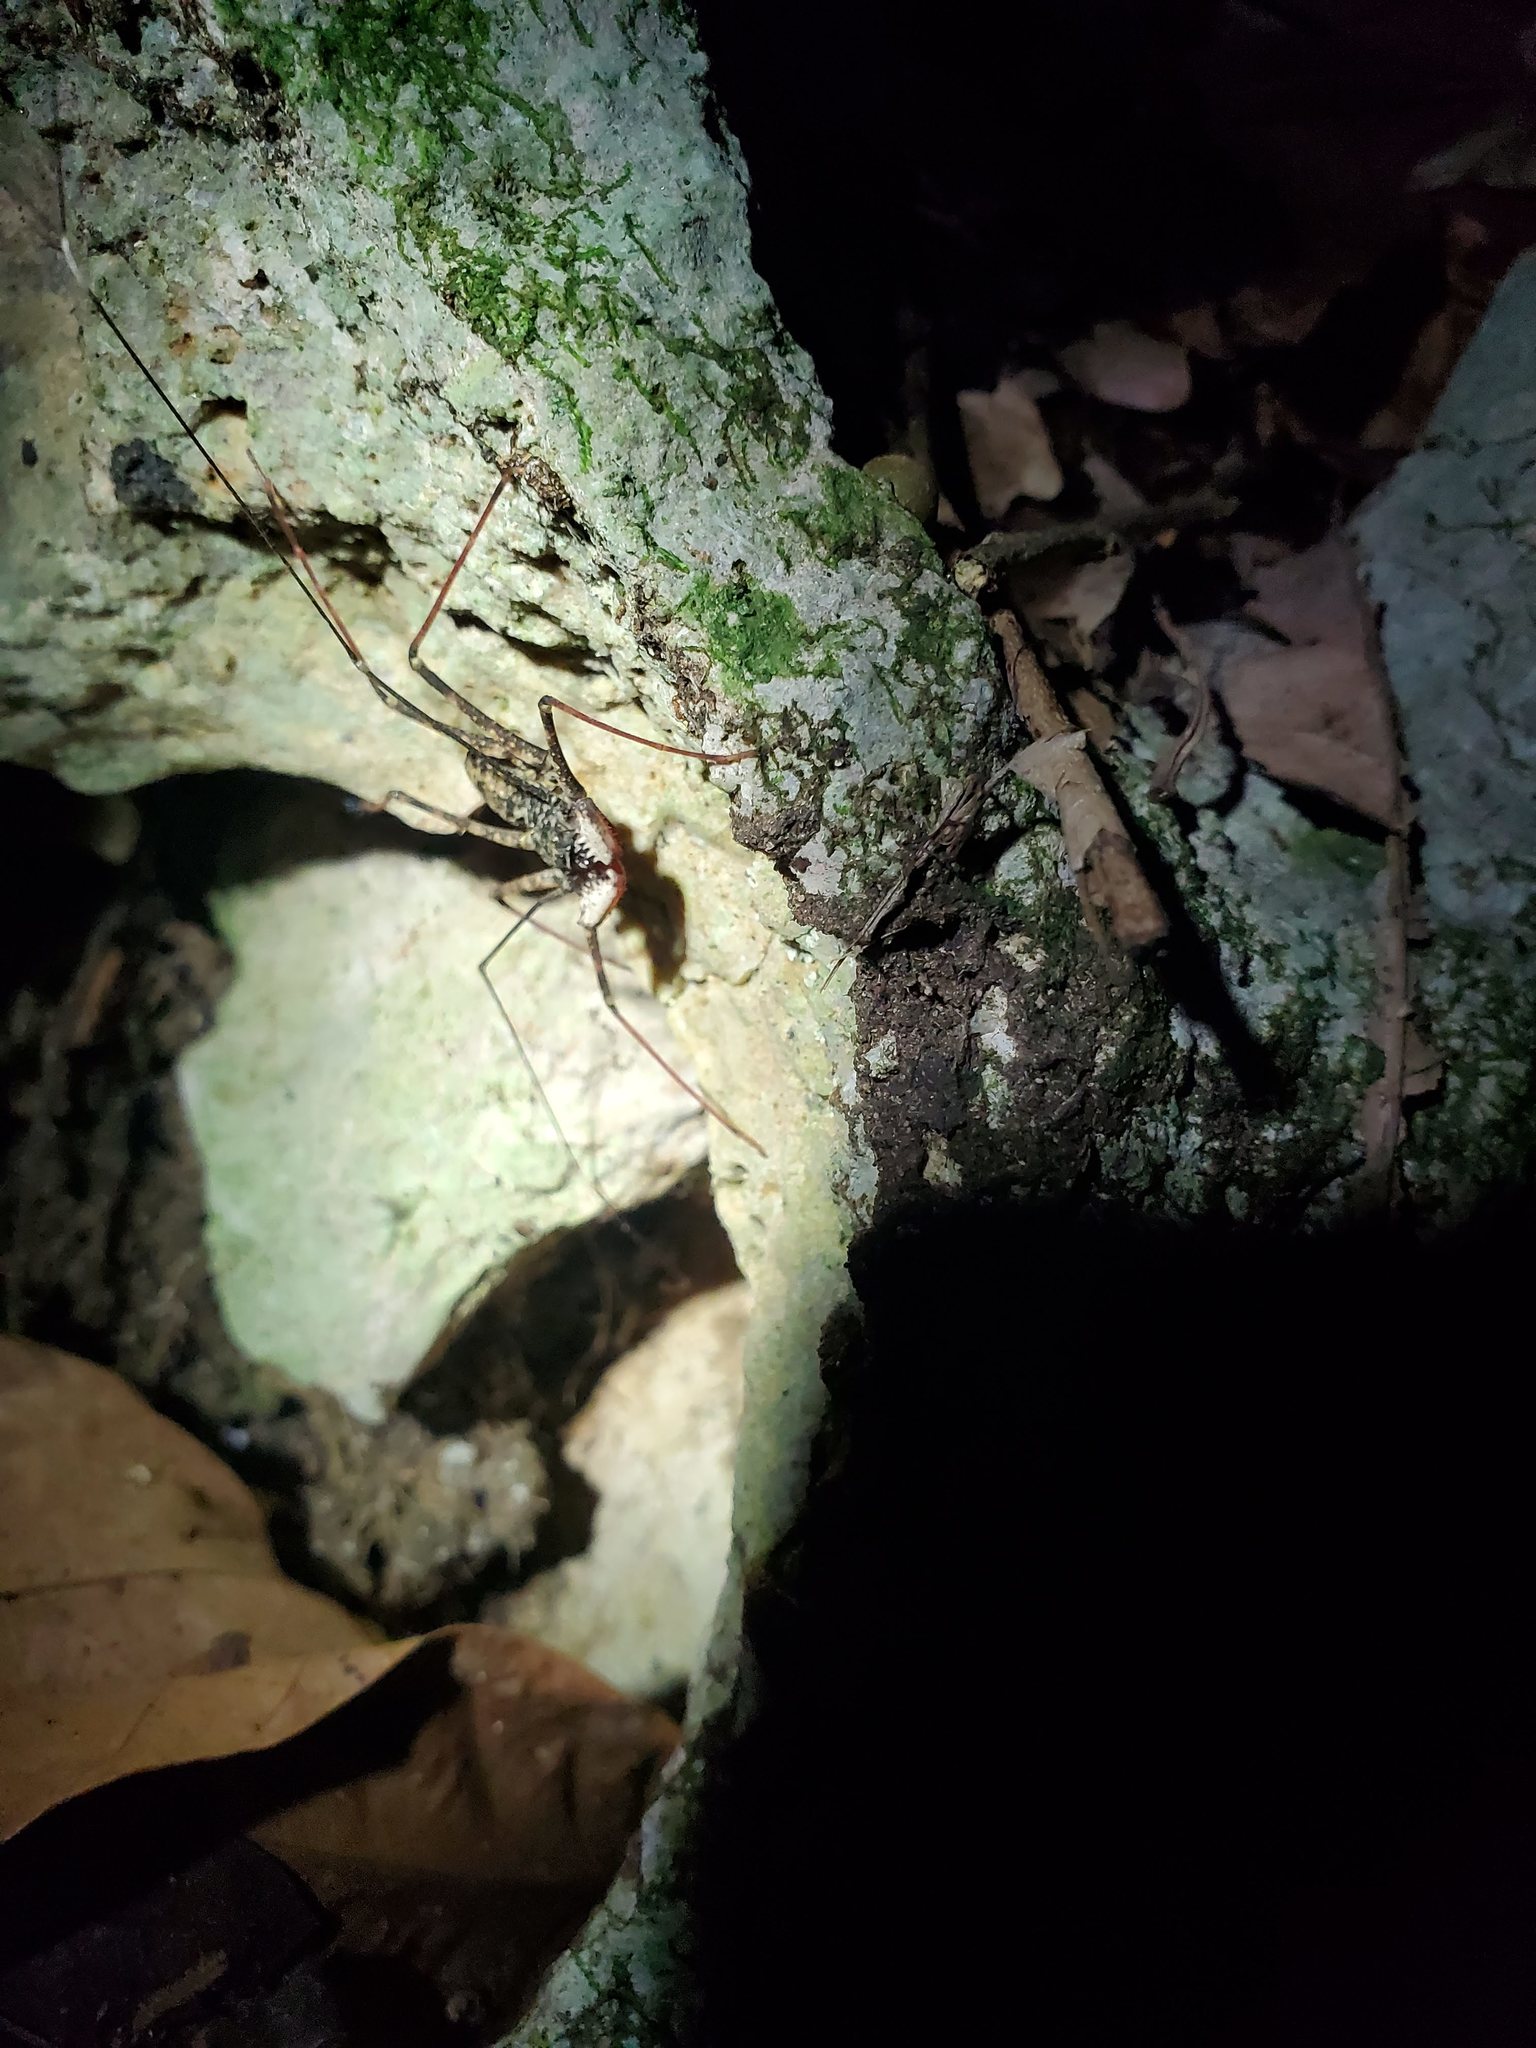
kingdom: Animalia
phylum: Arthropoda
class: Arachnida
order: Amblypygi
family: Phrynidae
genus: Phrynus
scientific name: Phrynus longipes
